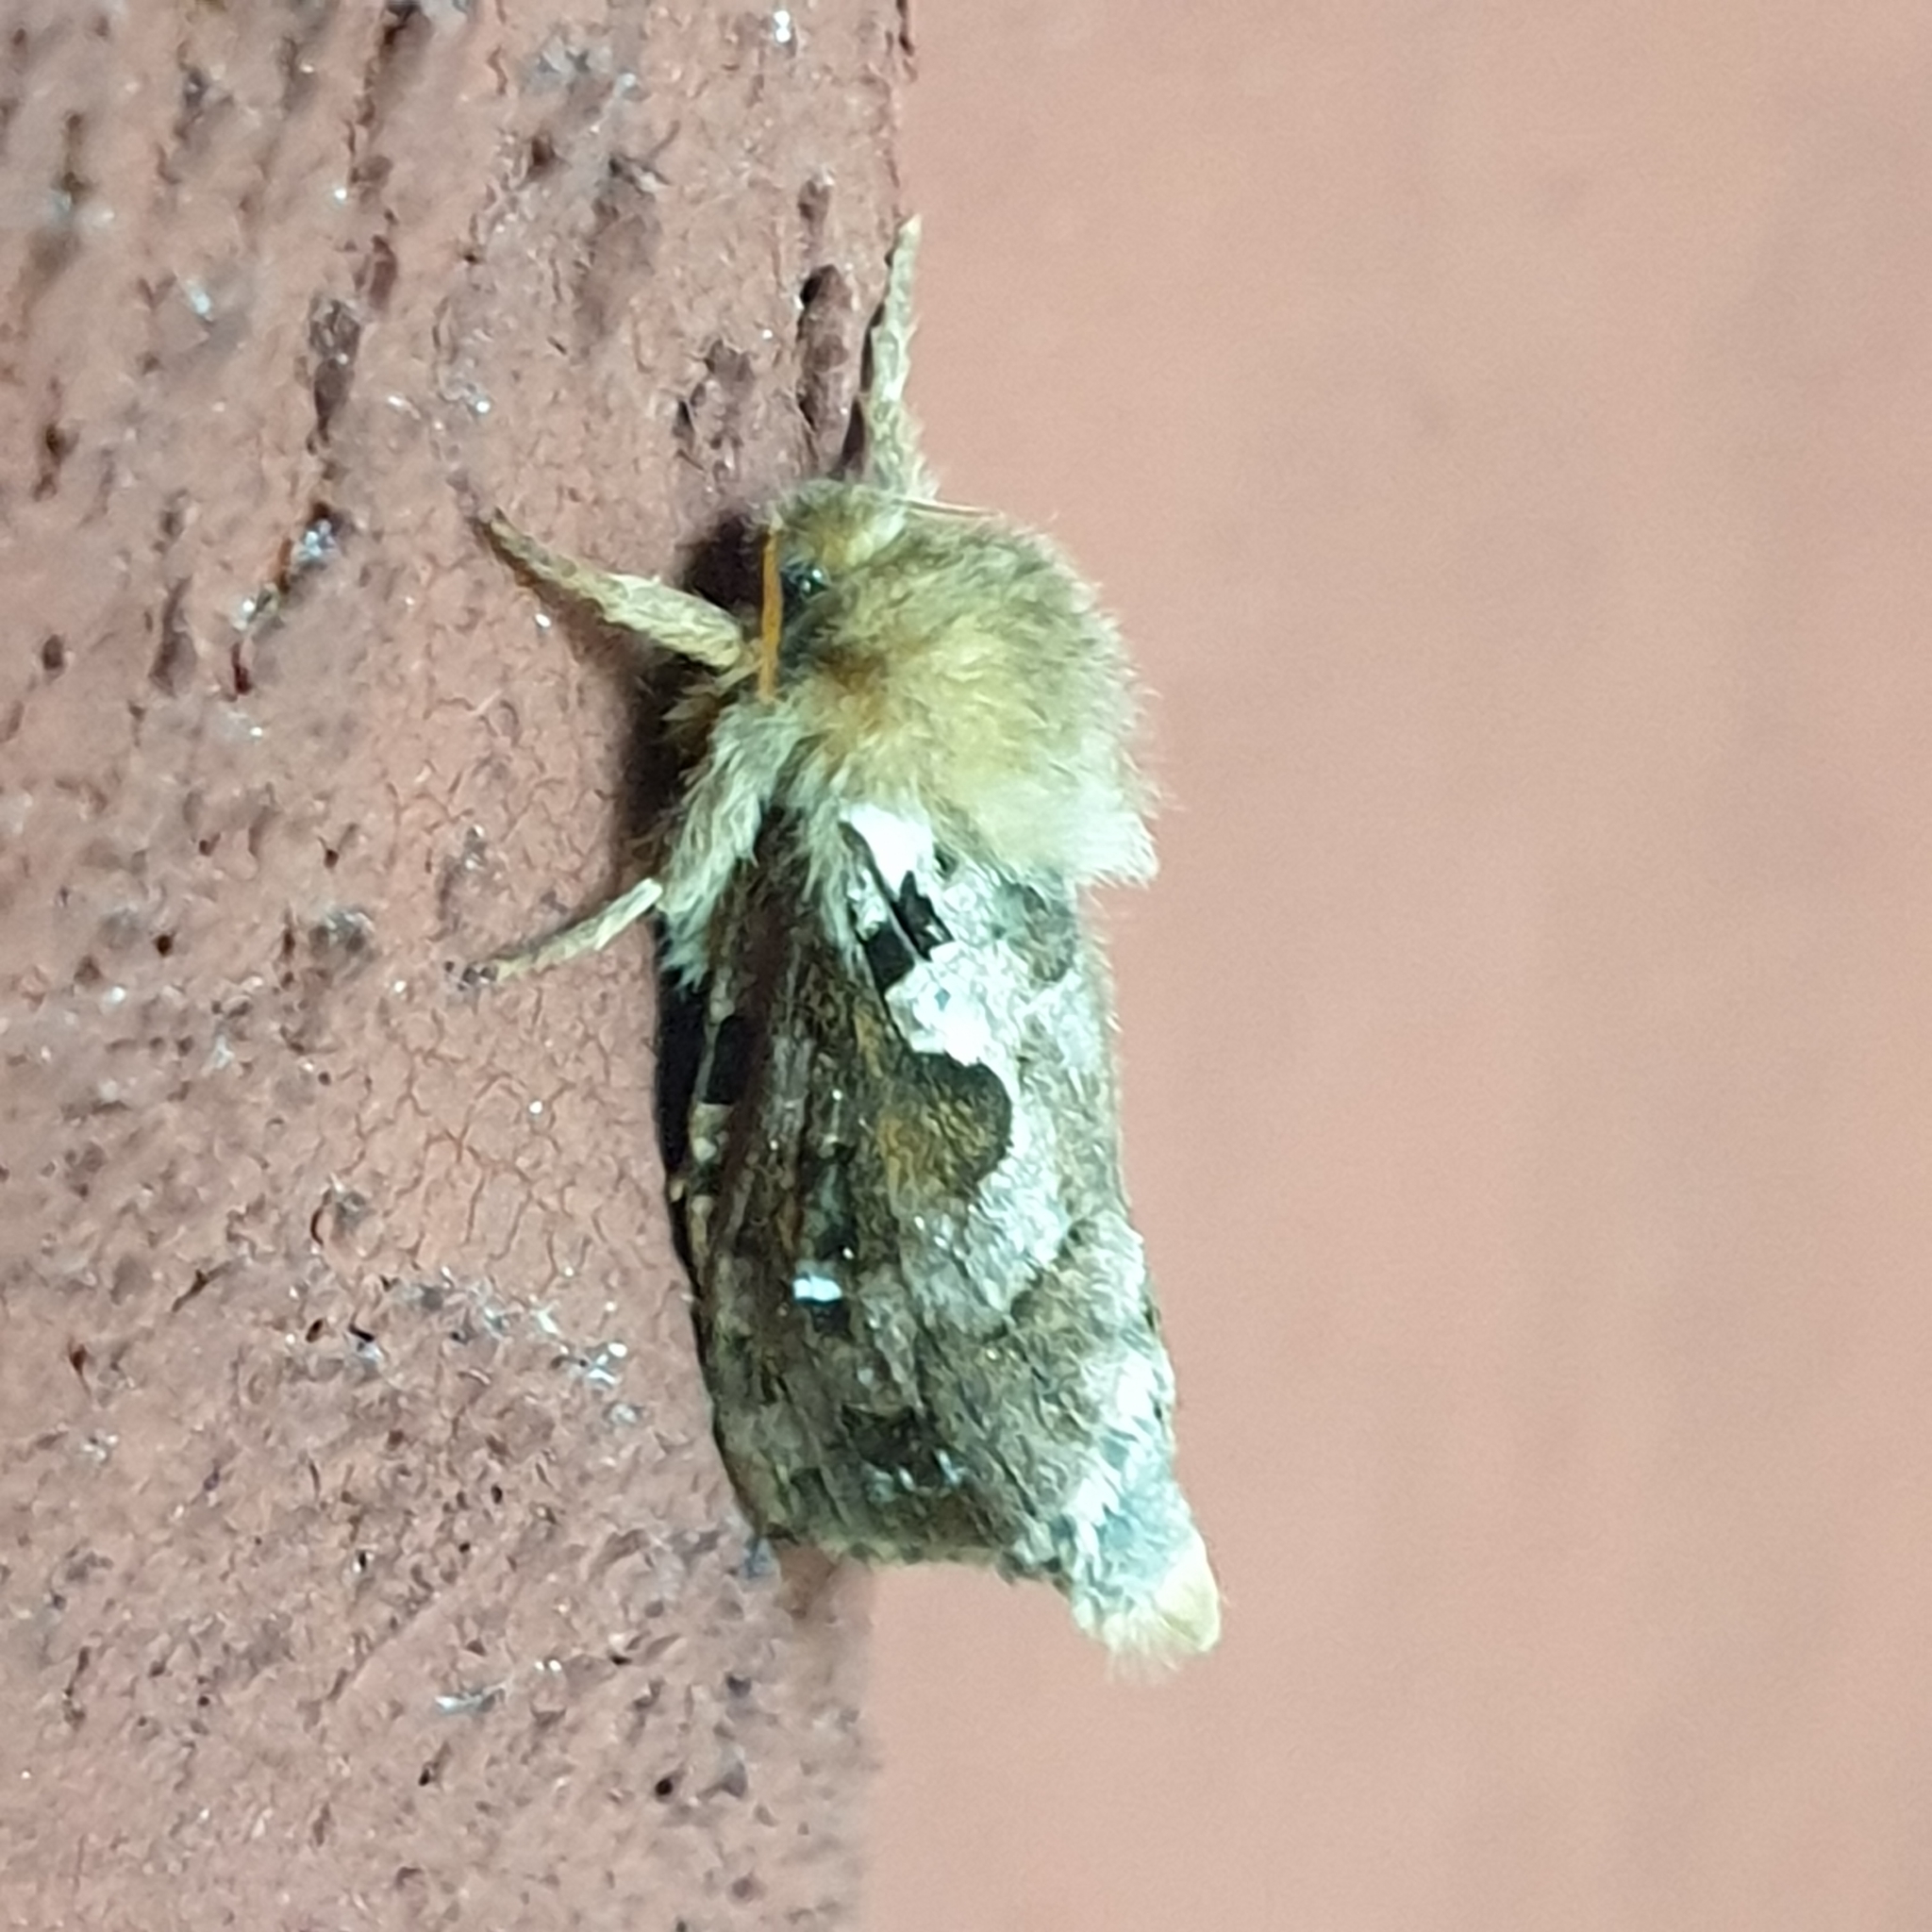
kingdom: Animalia
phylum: Arthropoda
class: Insecta
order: Lepidoptera
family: Hepialidae
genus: Korscheltellus
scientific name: Korscheltellus lupulina
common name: Common swift
